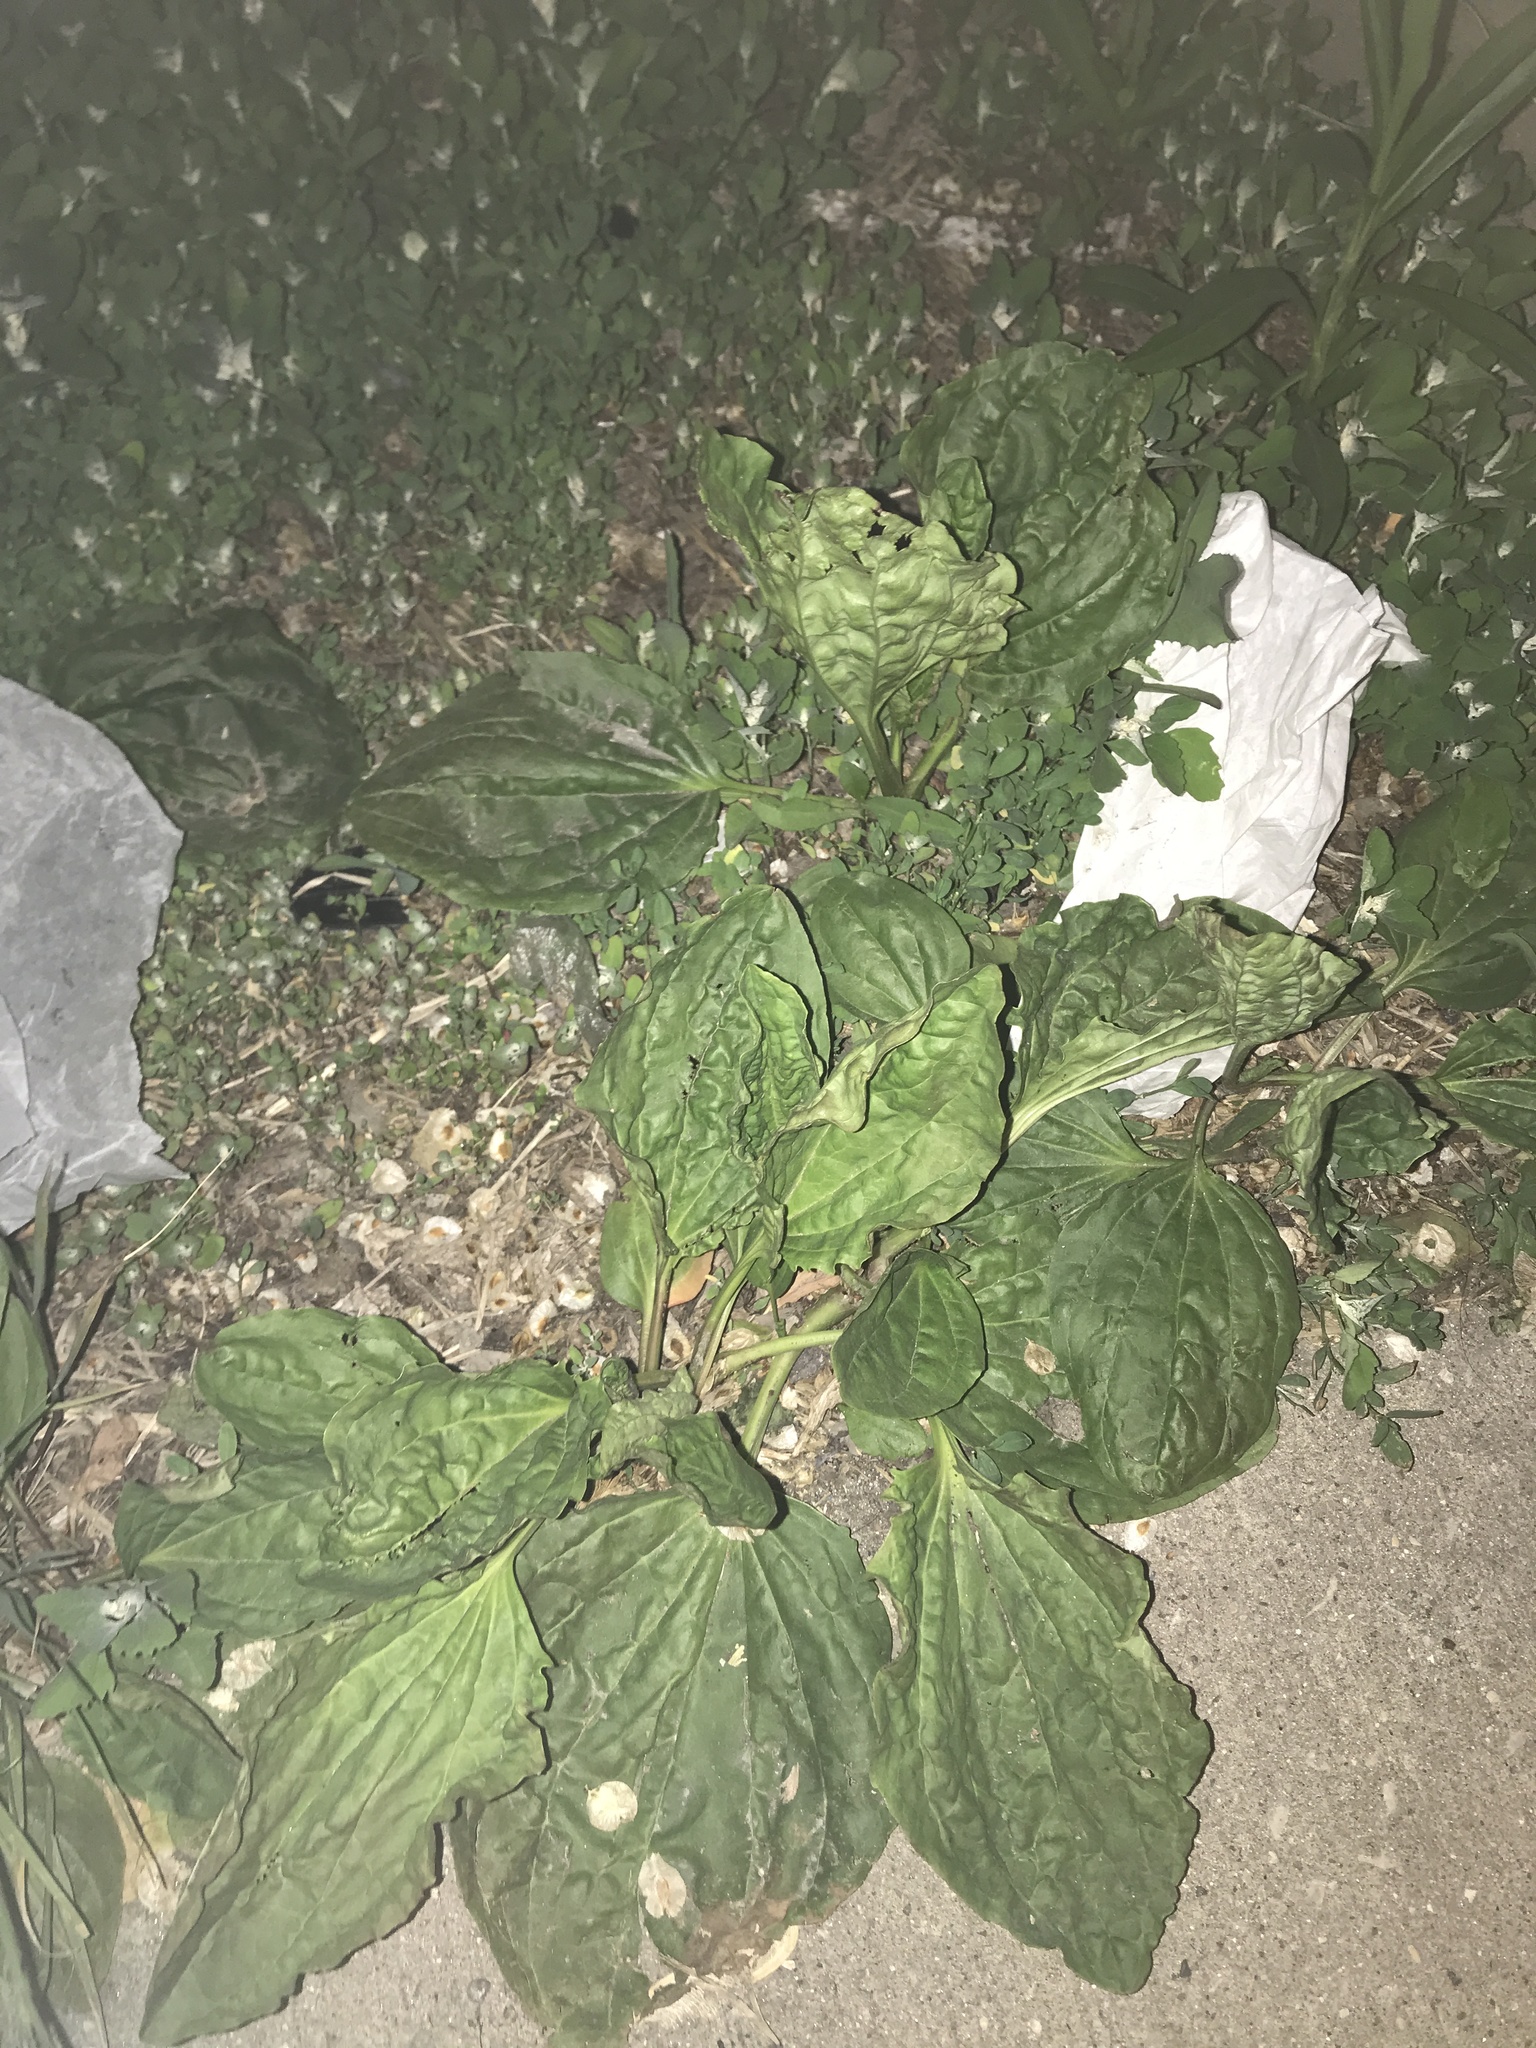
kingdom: Plantae
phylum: Tracheophyta
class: Magnoliopsida
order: Lamiales
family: Plantaginaceae
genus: Plantago
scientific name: Plantago major
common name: Common plantain
